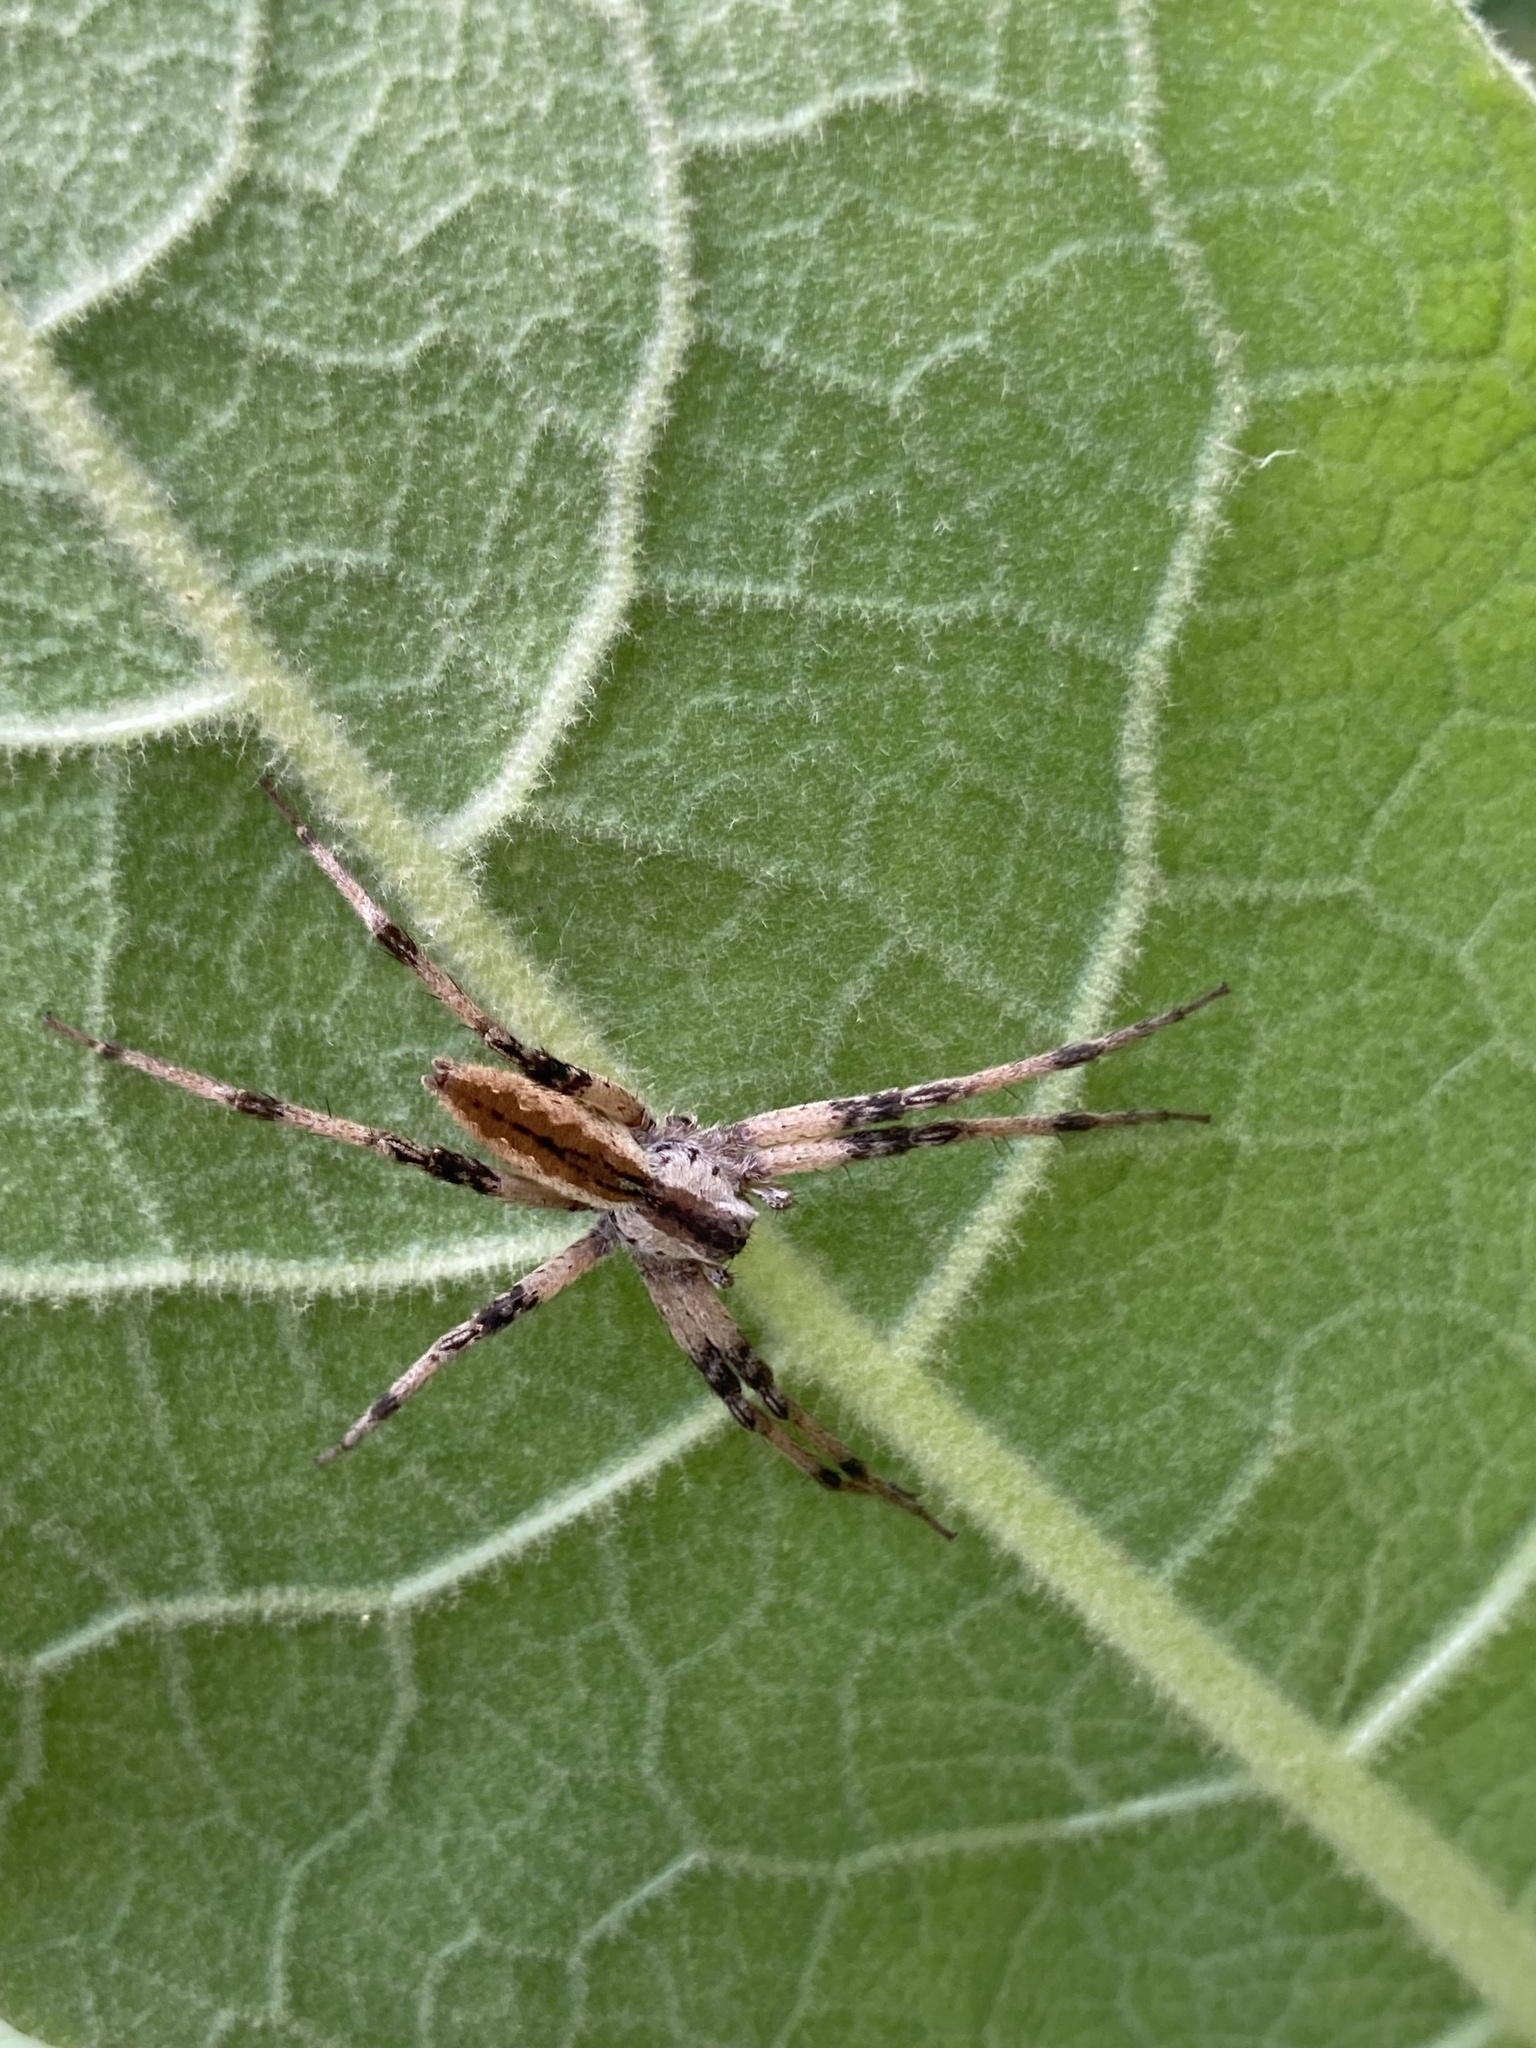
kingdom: Animalia
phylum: Arthropoda
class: Arachnida
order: Araneae
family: Pisauridae
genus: Pisaurina
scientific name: Pisaurina mira
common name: American nursery web spider
